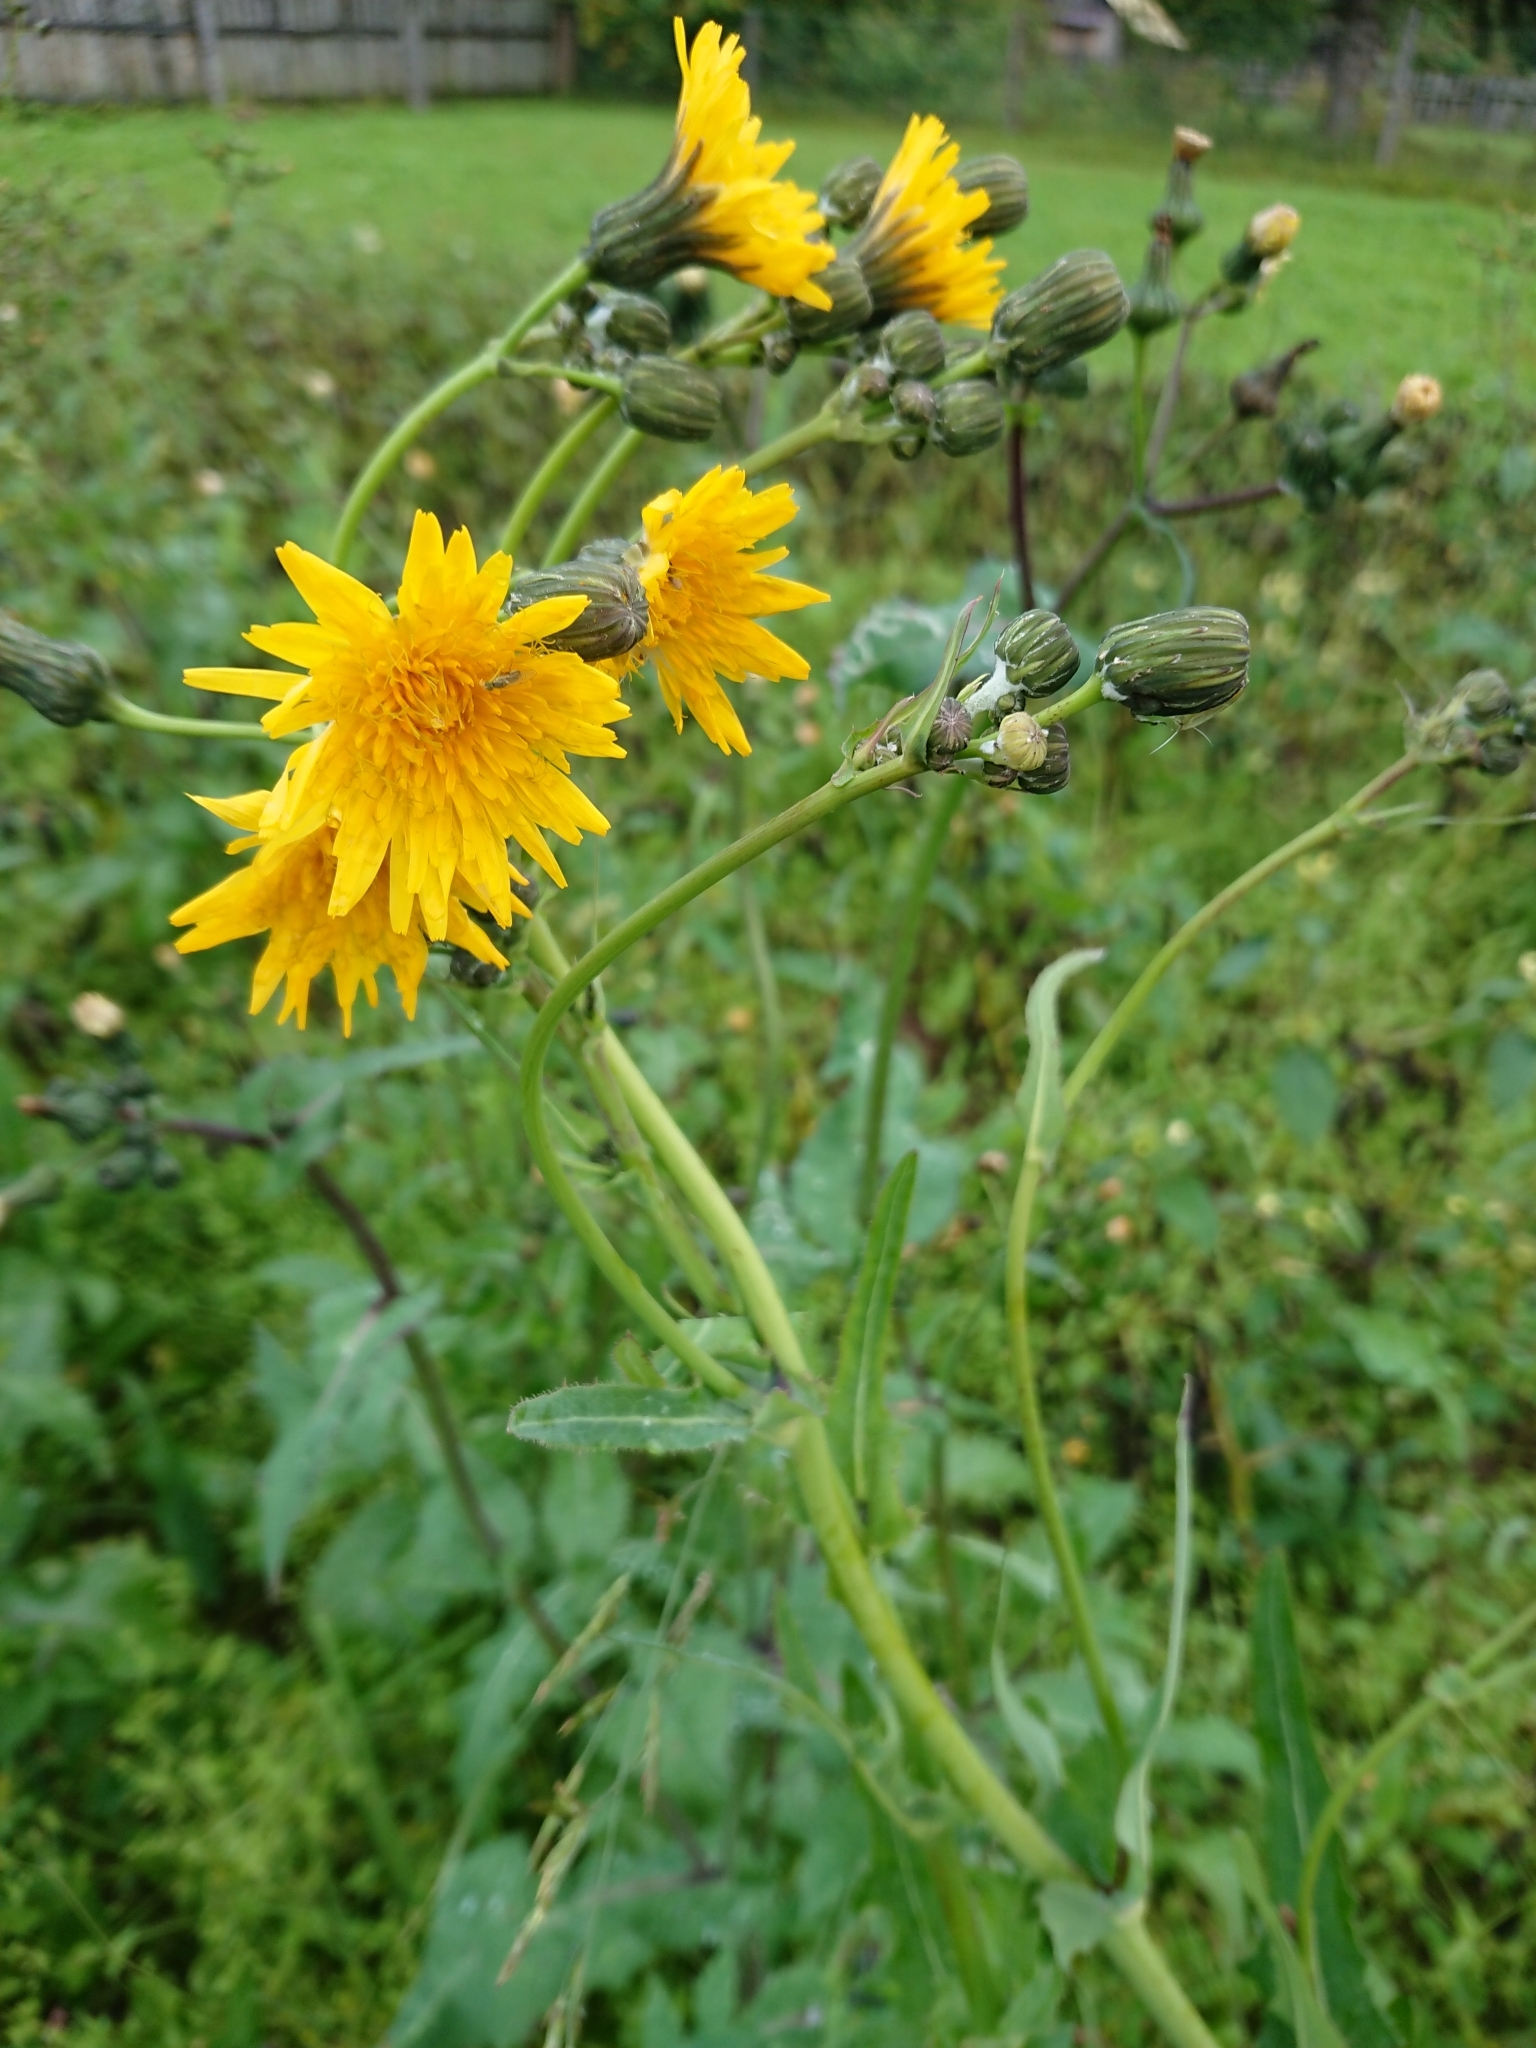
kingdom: Plantae
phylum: Tracheophyta
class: Magnoliopsida
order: Asterales
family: Asteraceae
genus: Sonchus
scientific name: Sonchus arvensis
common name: Perennial sow-thistle
